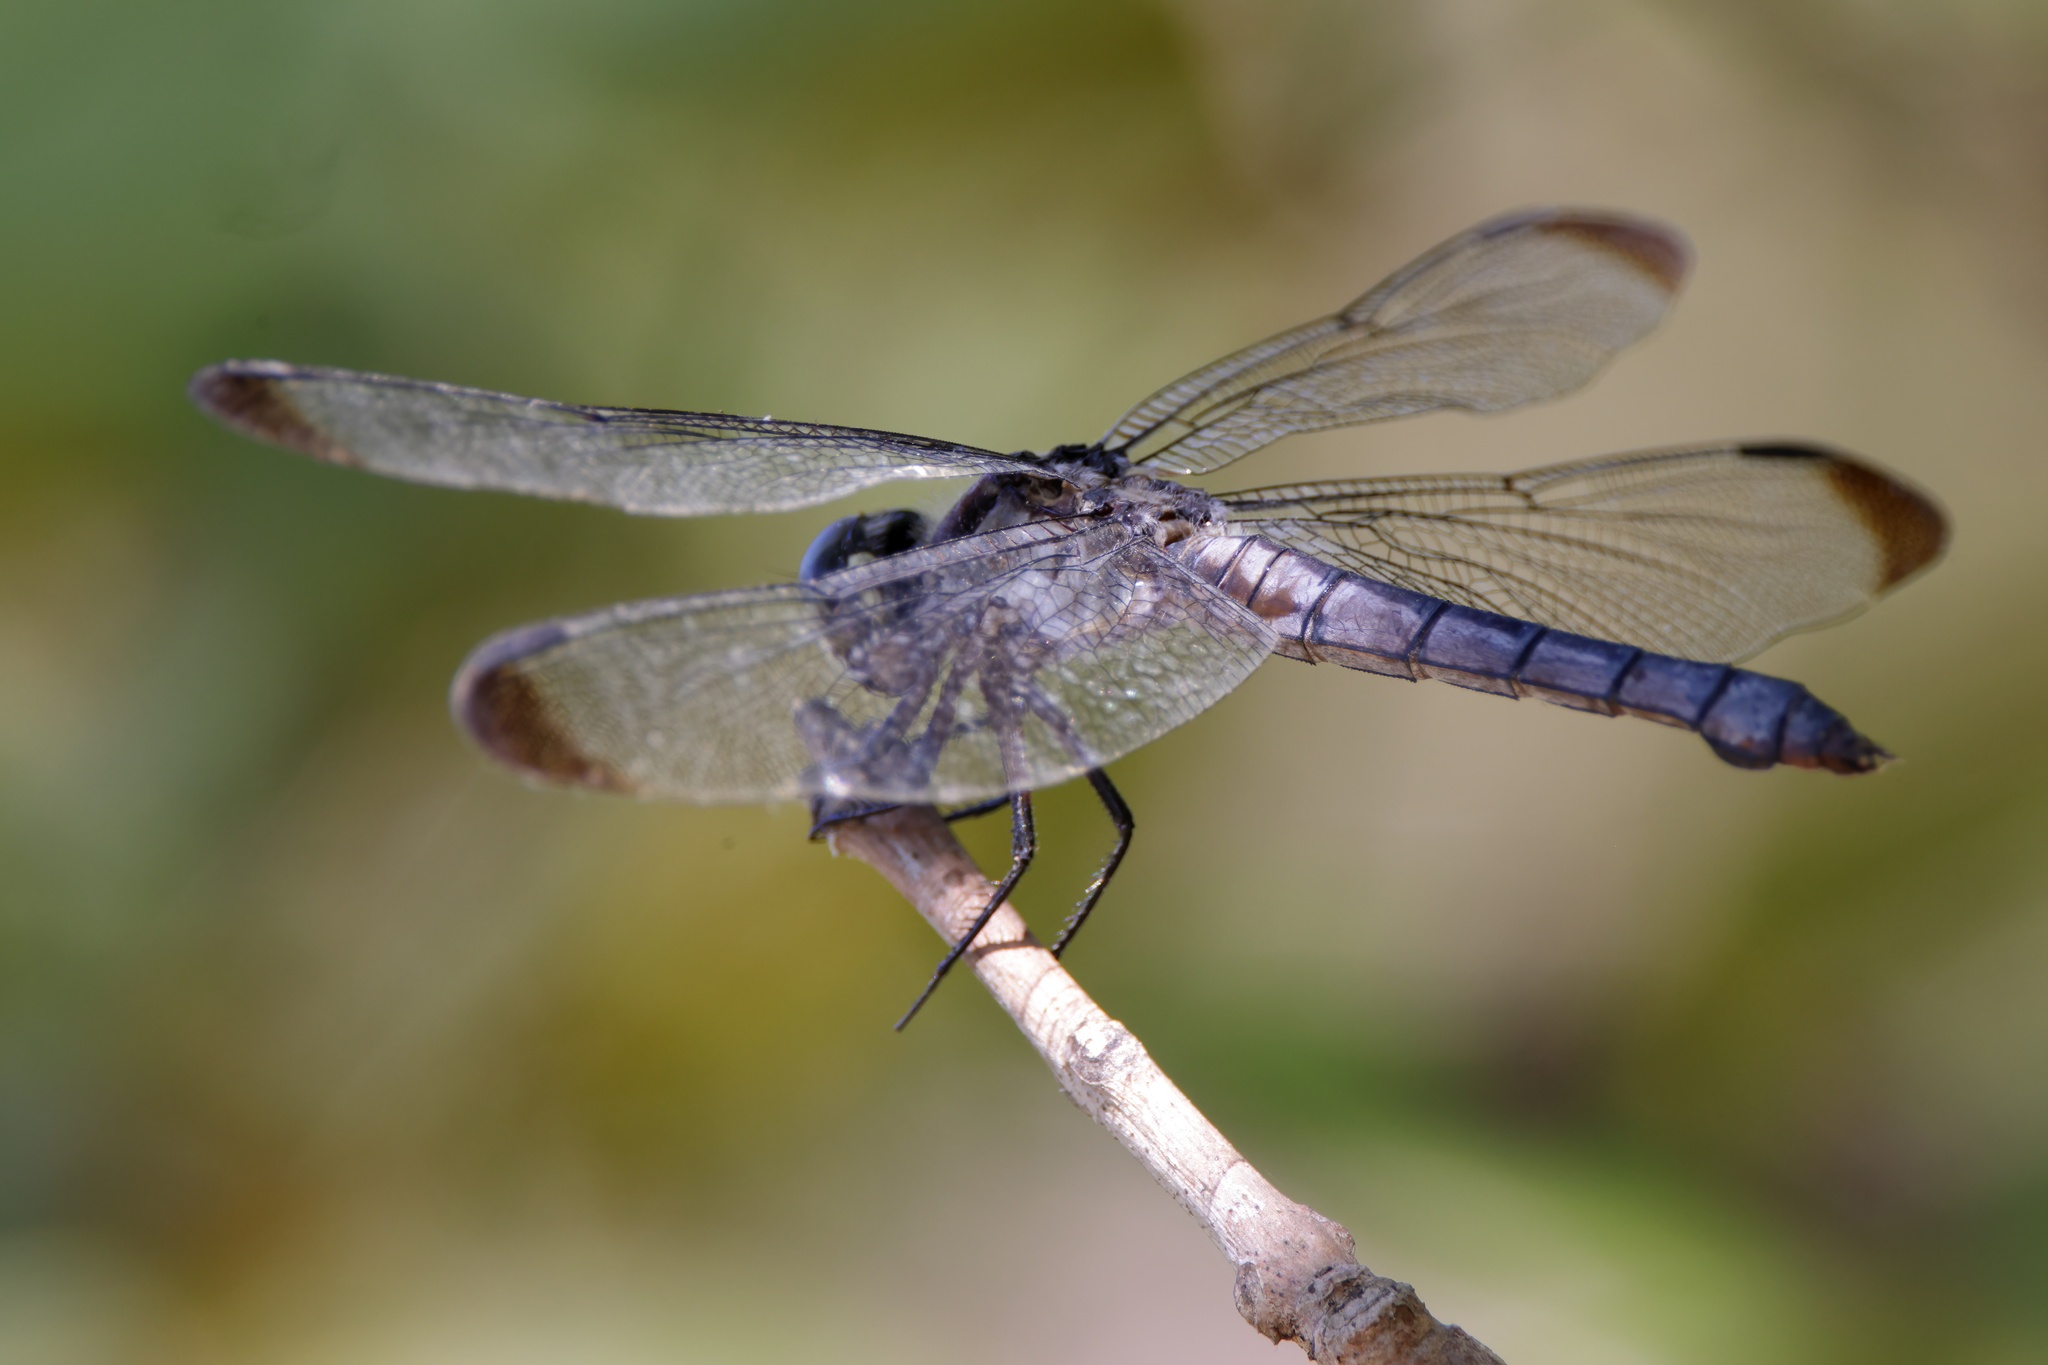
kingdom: Animalia
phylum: Arthropoda
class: Insecta
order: Odonata
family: Libellulidae
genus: Libellula
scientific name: Libellula vibrans
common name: Great blue skimmer
